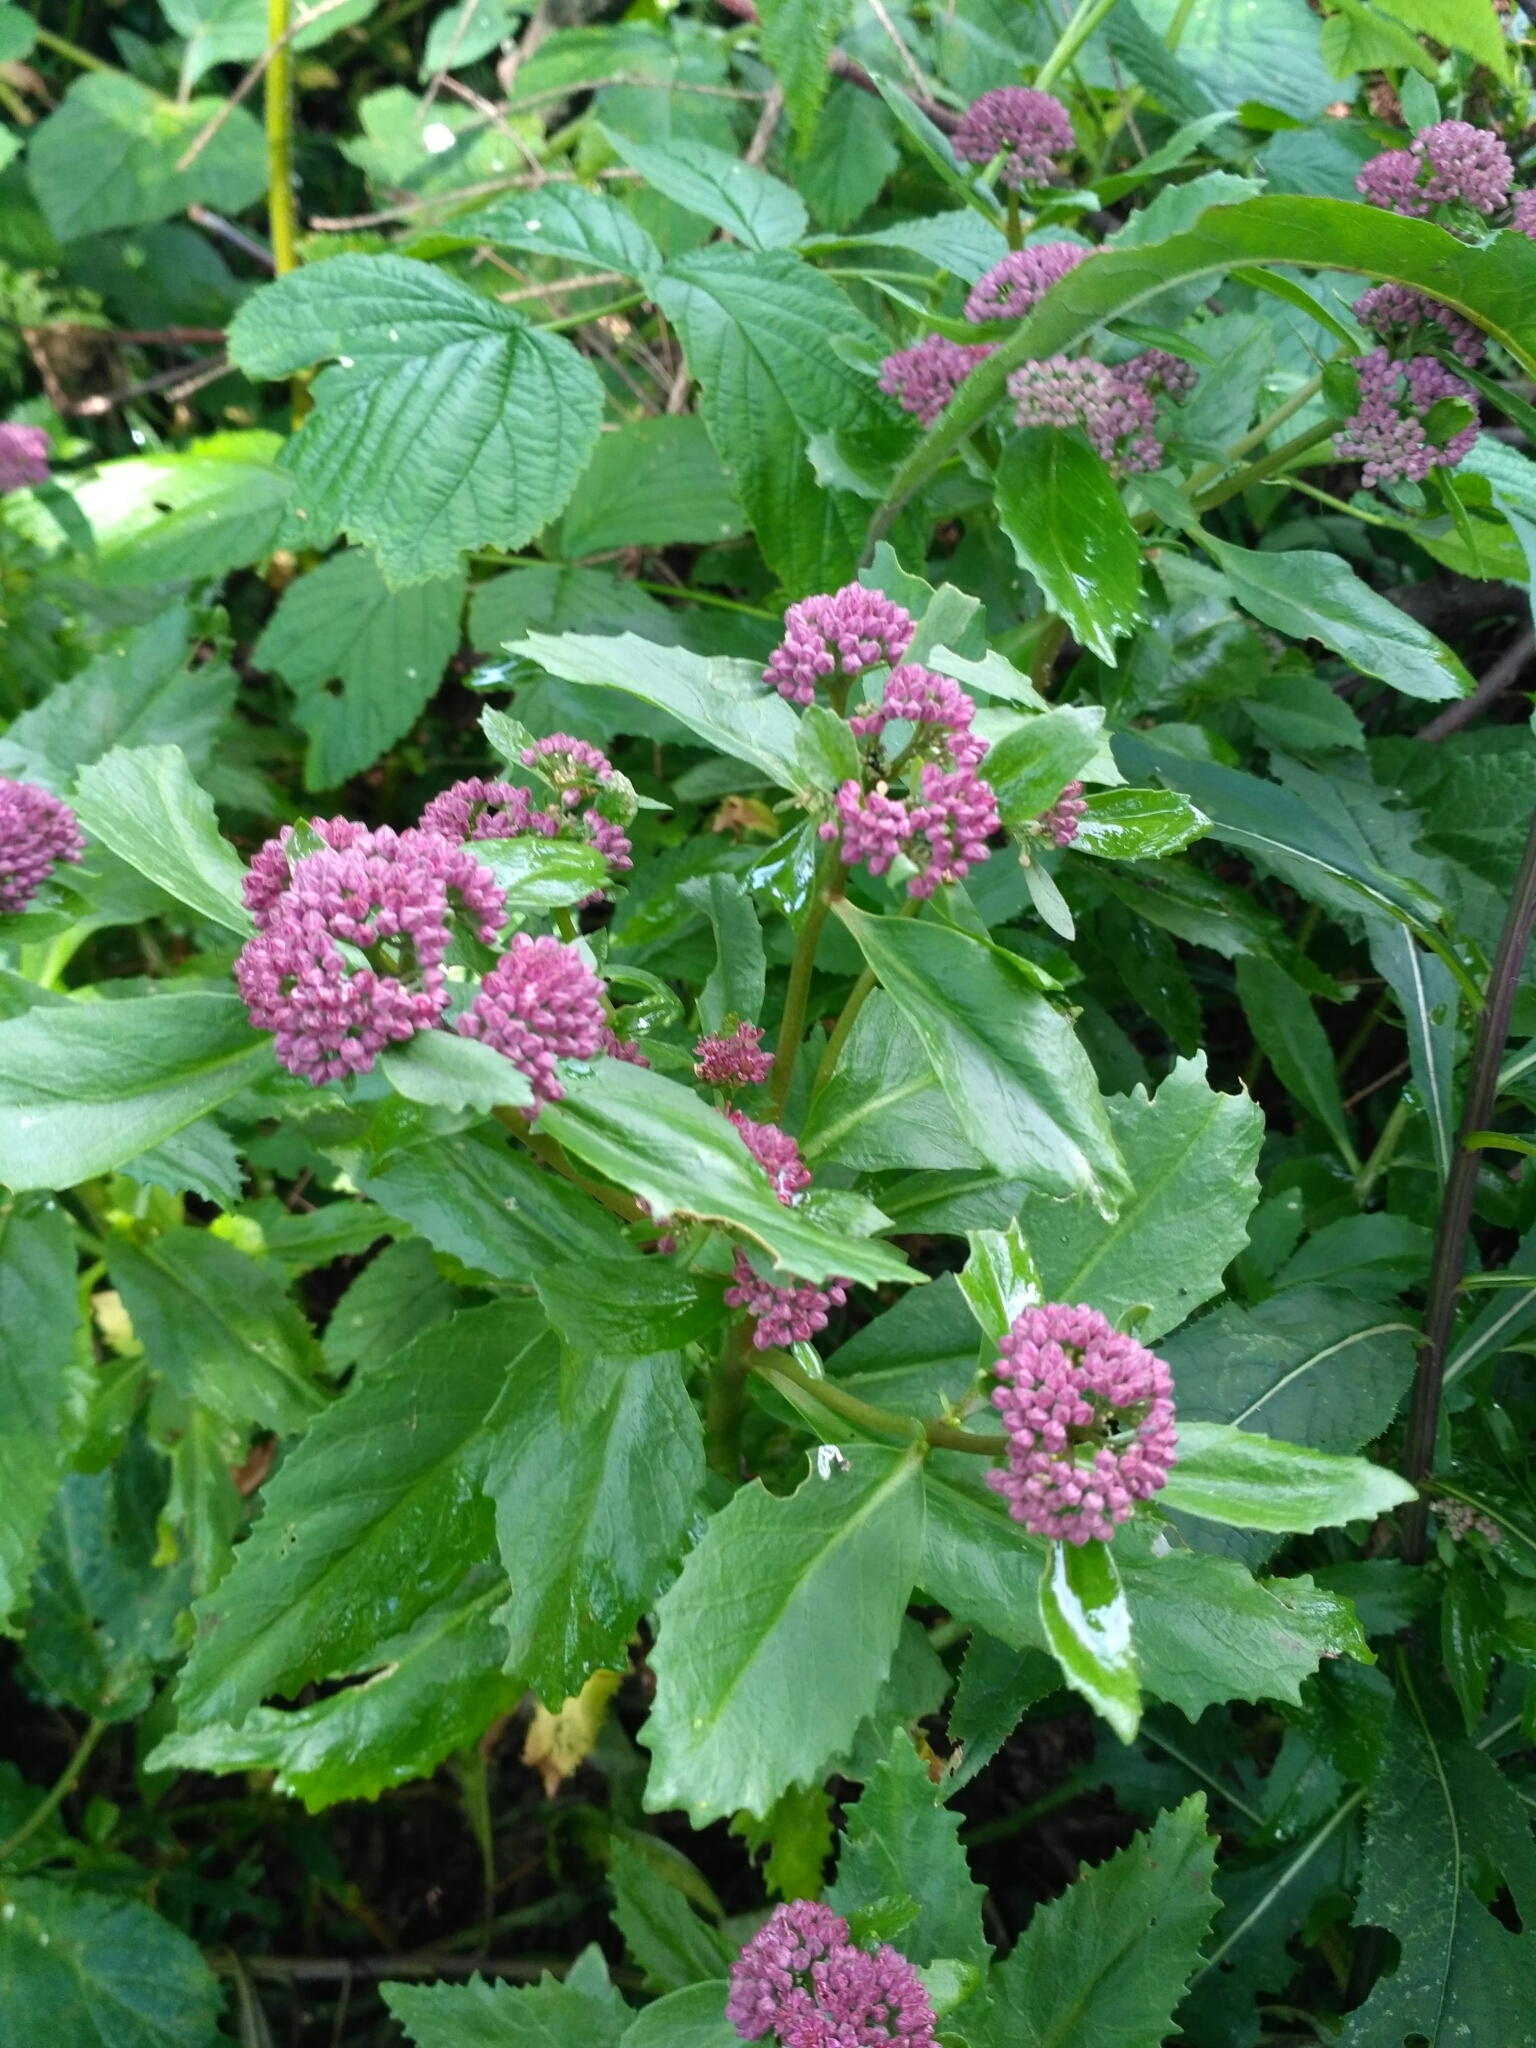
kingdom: Plantae
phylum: Tracheophyta
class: Magnoliopsida
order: Saxifragales
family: Crassulaceae
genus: Hylotelephium
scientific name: Hylotelephium vulgare
